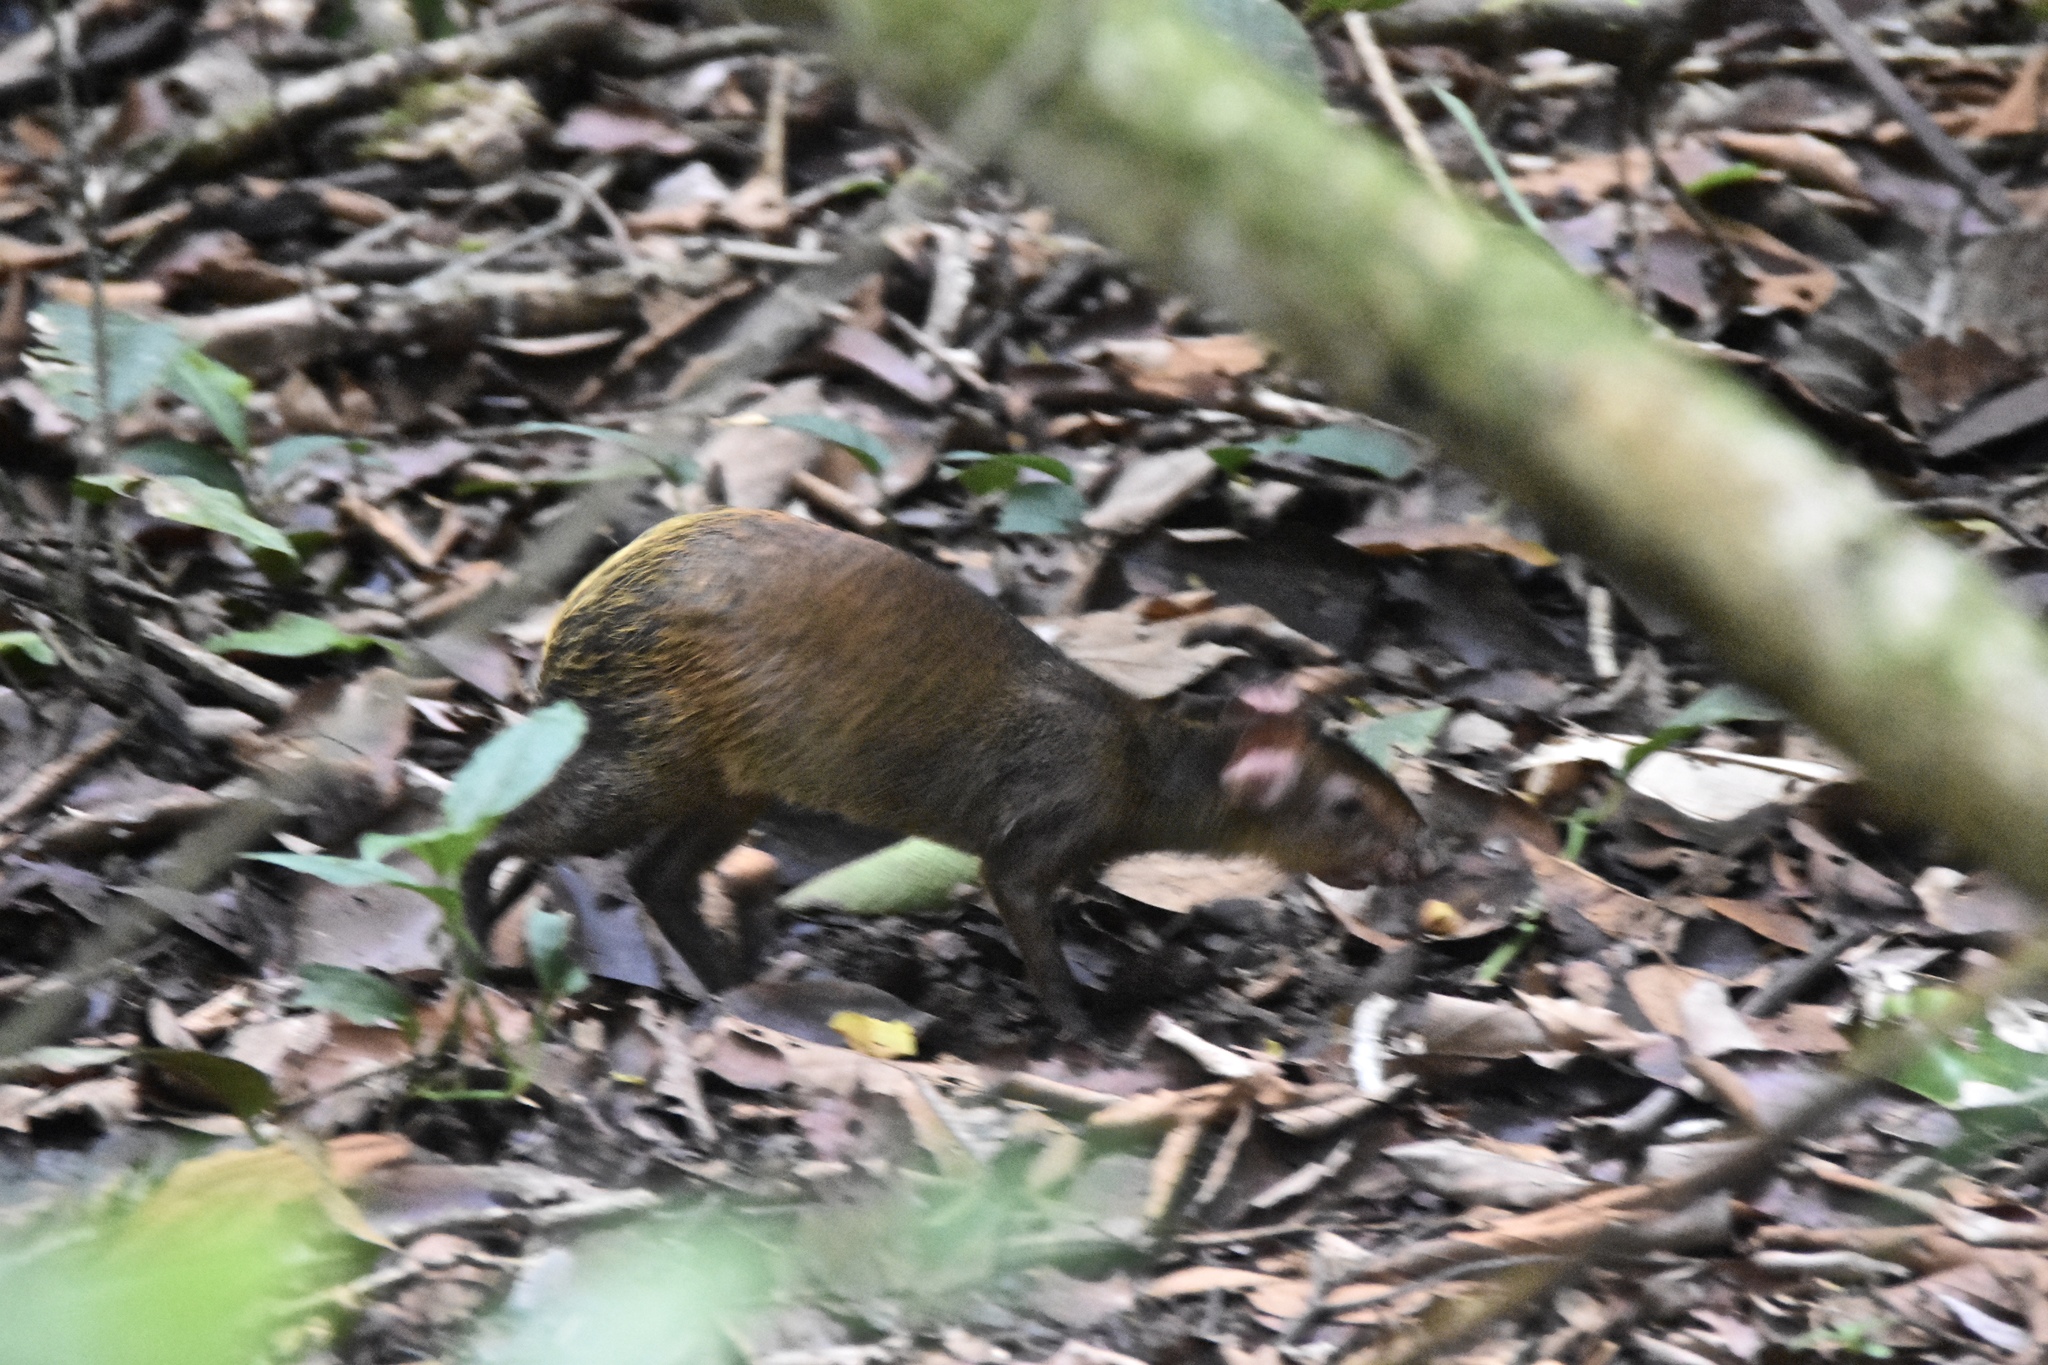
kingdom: Animalia
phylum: Chordata
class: Mammalia
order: Rodentia
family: Dasyproctidae
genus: Dasyprocta
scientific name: Dasyprocta punctata
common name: Central american agouti
